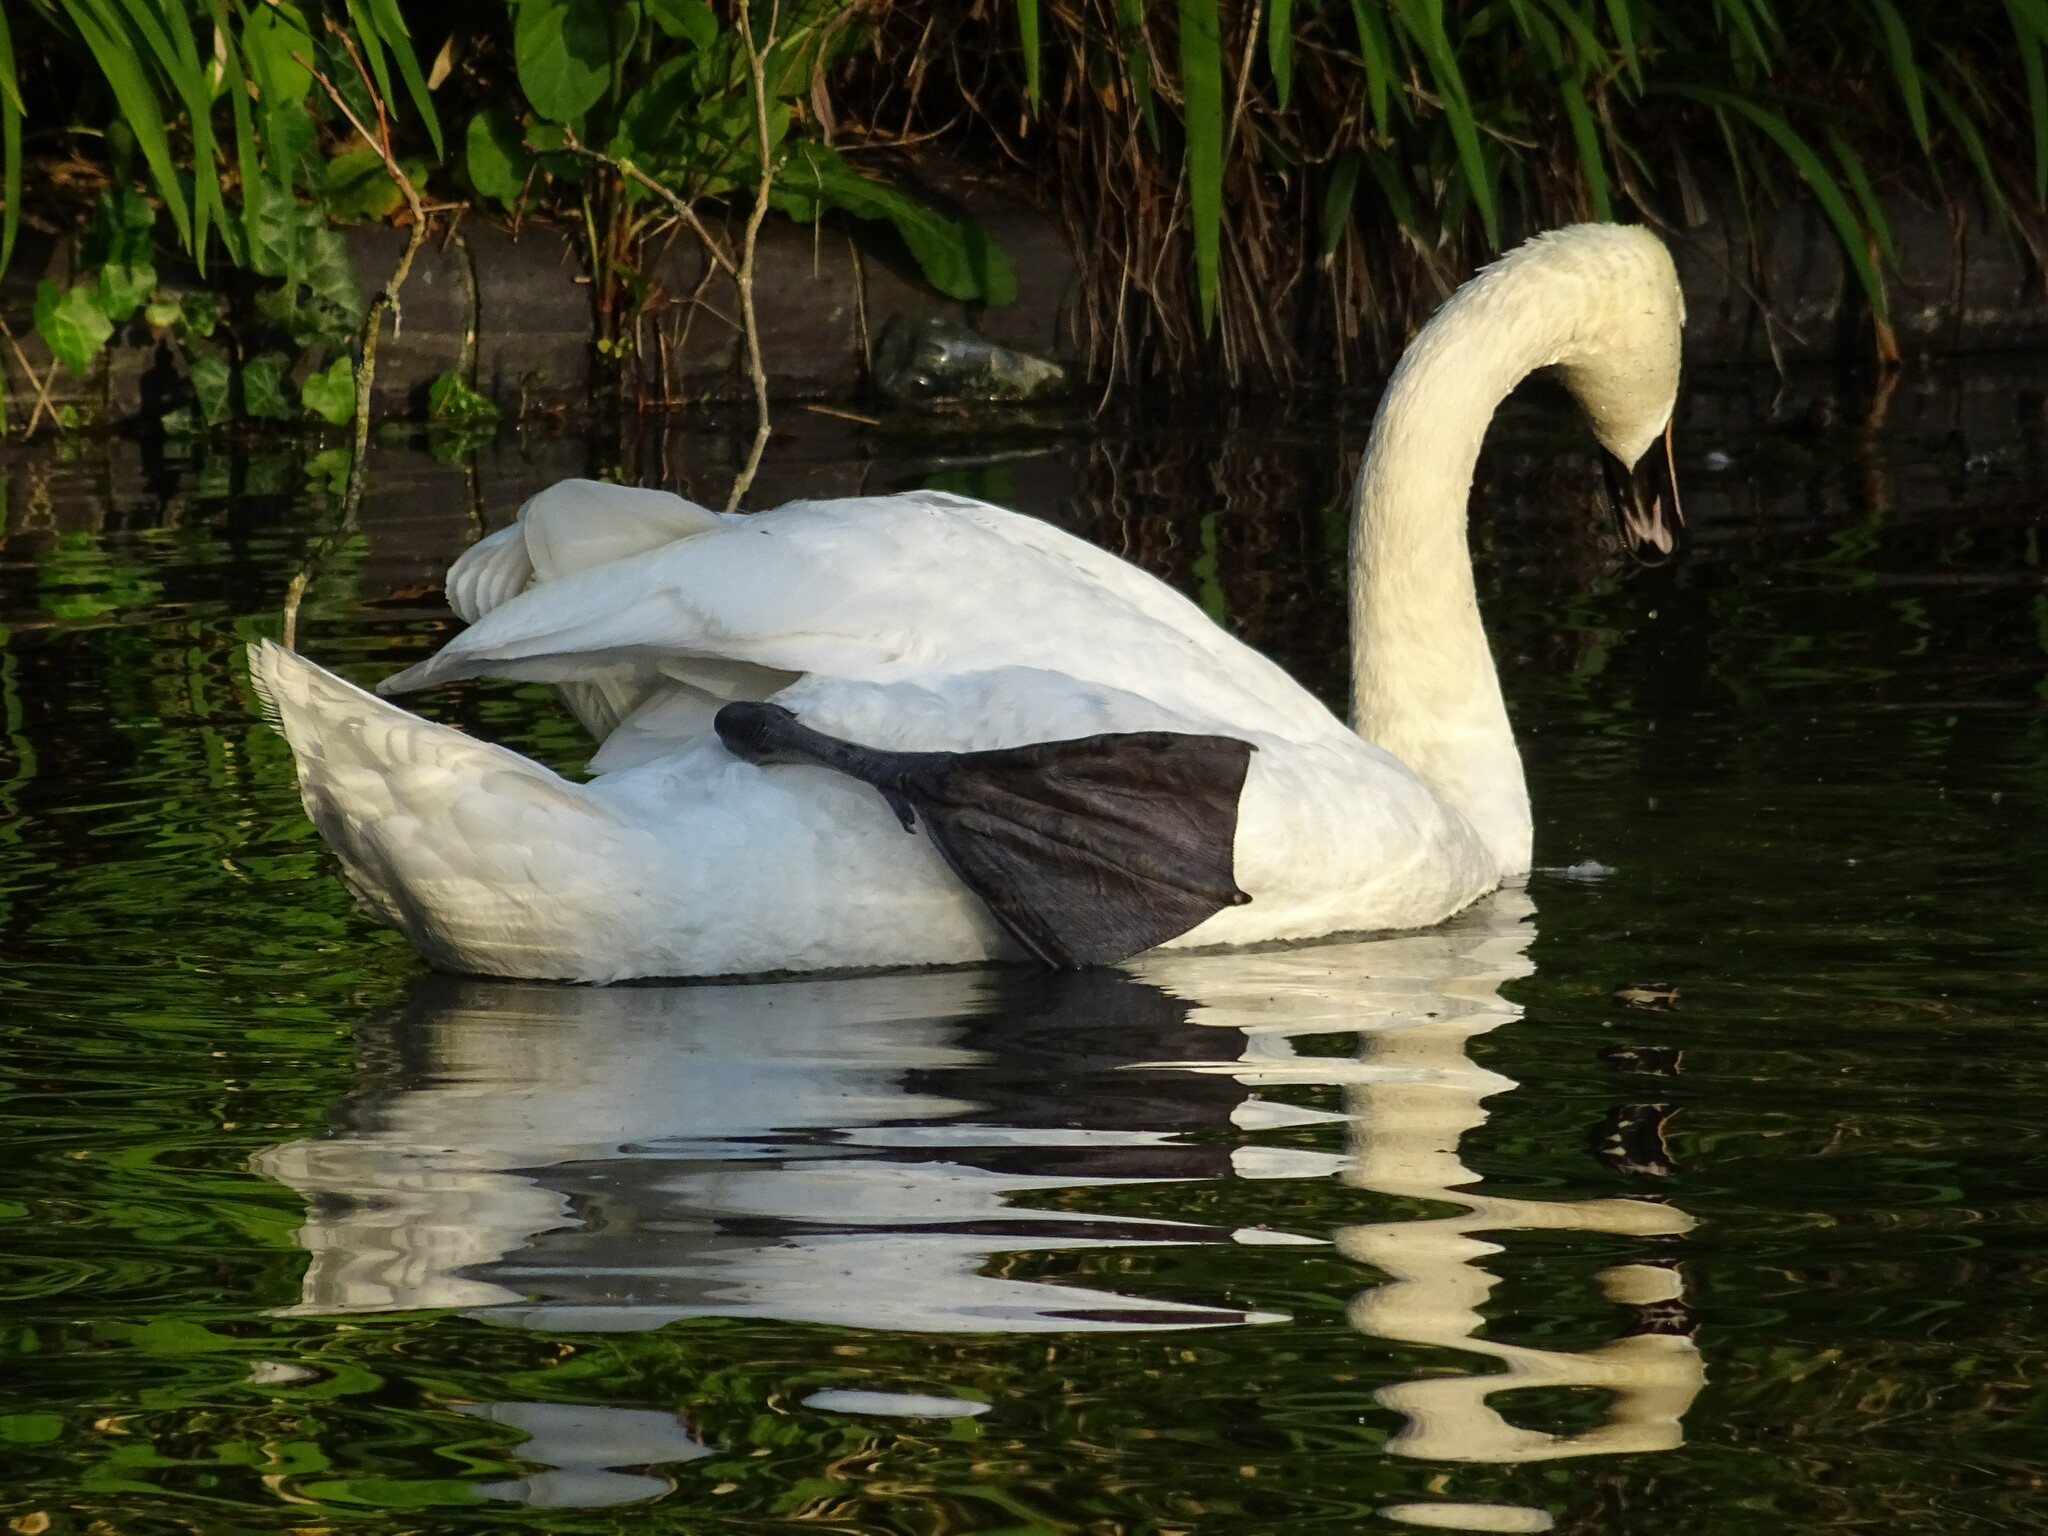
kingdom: Animalia
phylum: Chordata
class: Aves
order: Anseriformes
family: Anatidae
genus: Cygnus
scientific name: Cygnus olor
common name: Mute swan
